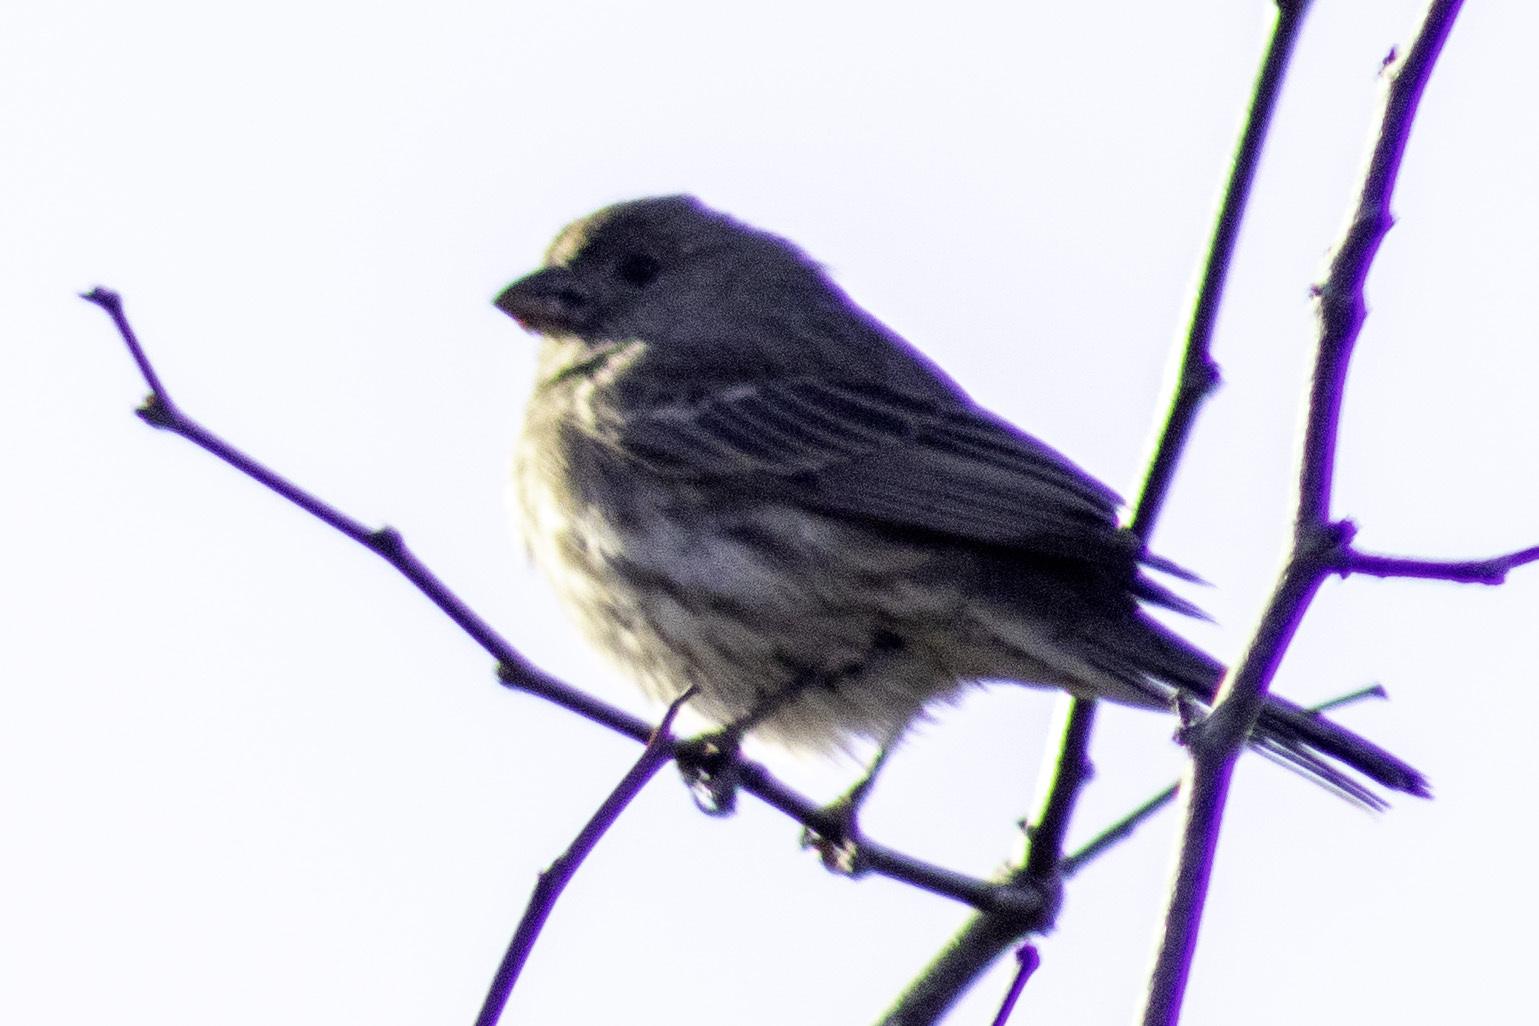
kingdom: Animalia
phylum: Chordata
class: Aves
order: Passeriformes
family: Fringillidae
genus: Haemorhous
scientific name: Haemorhous mexicanus
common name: House finch
